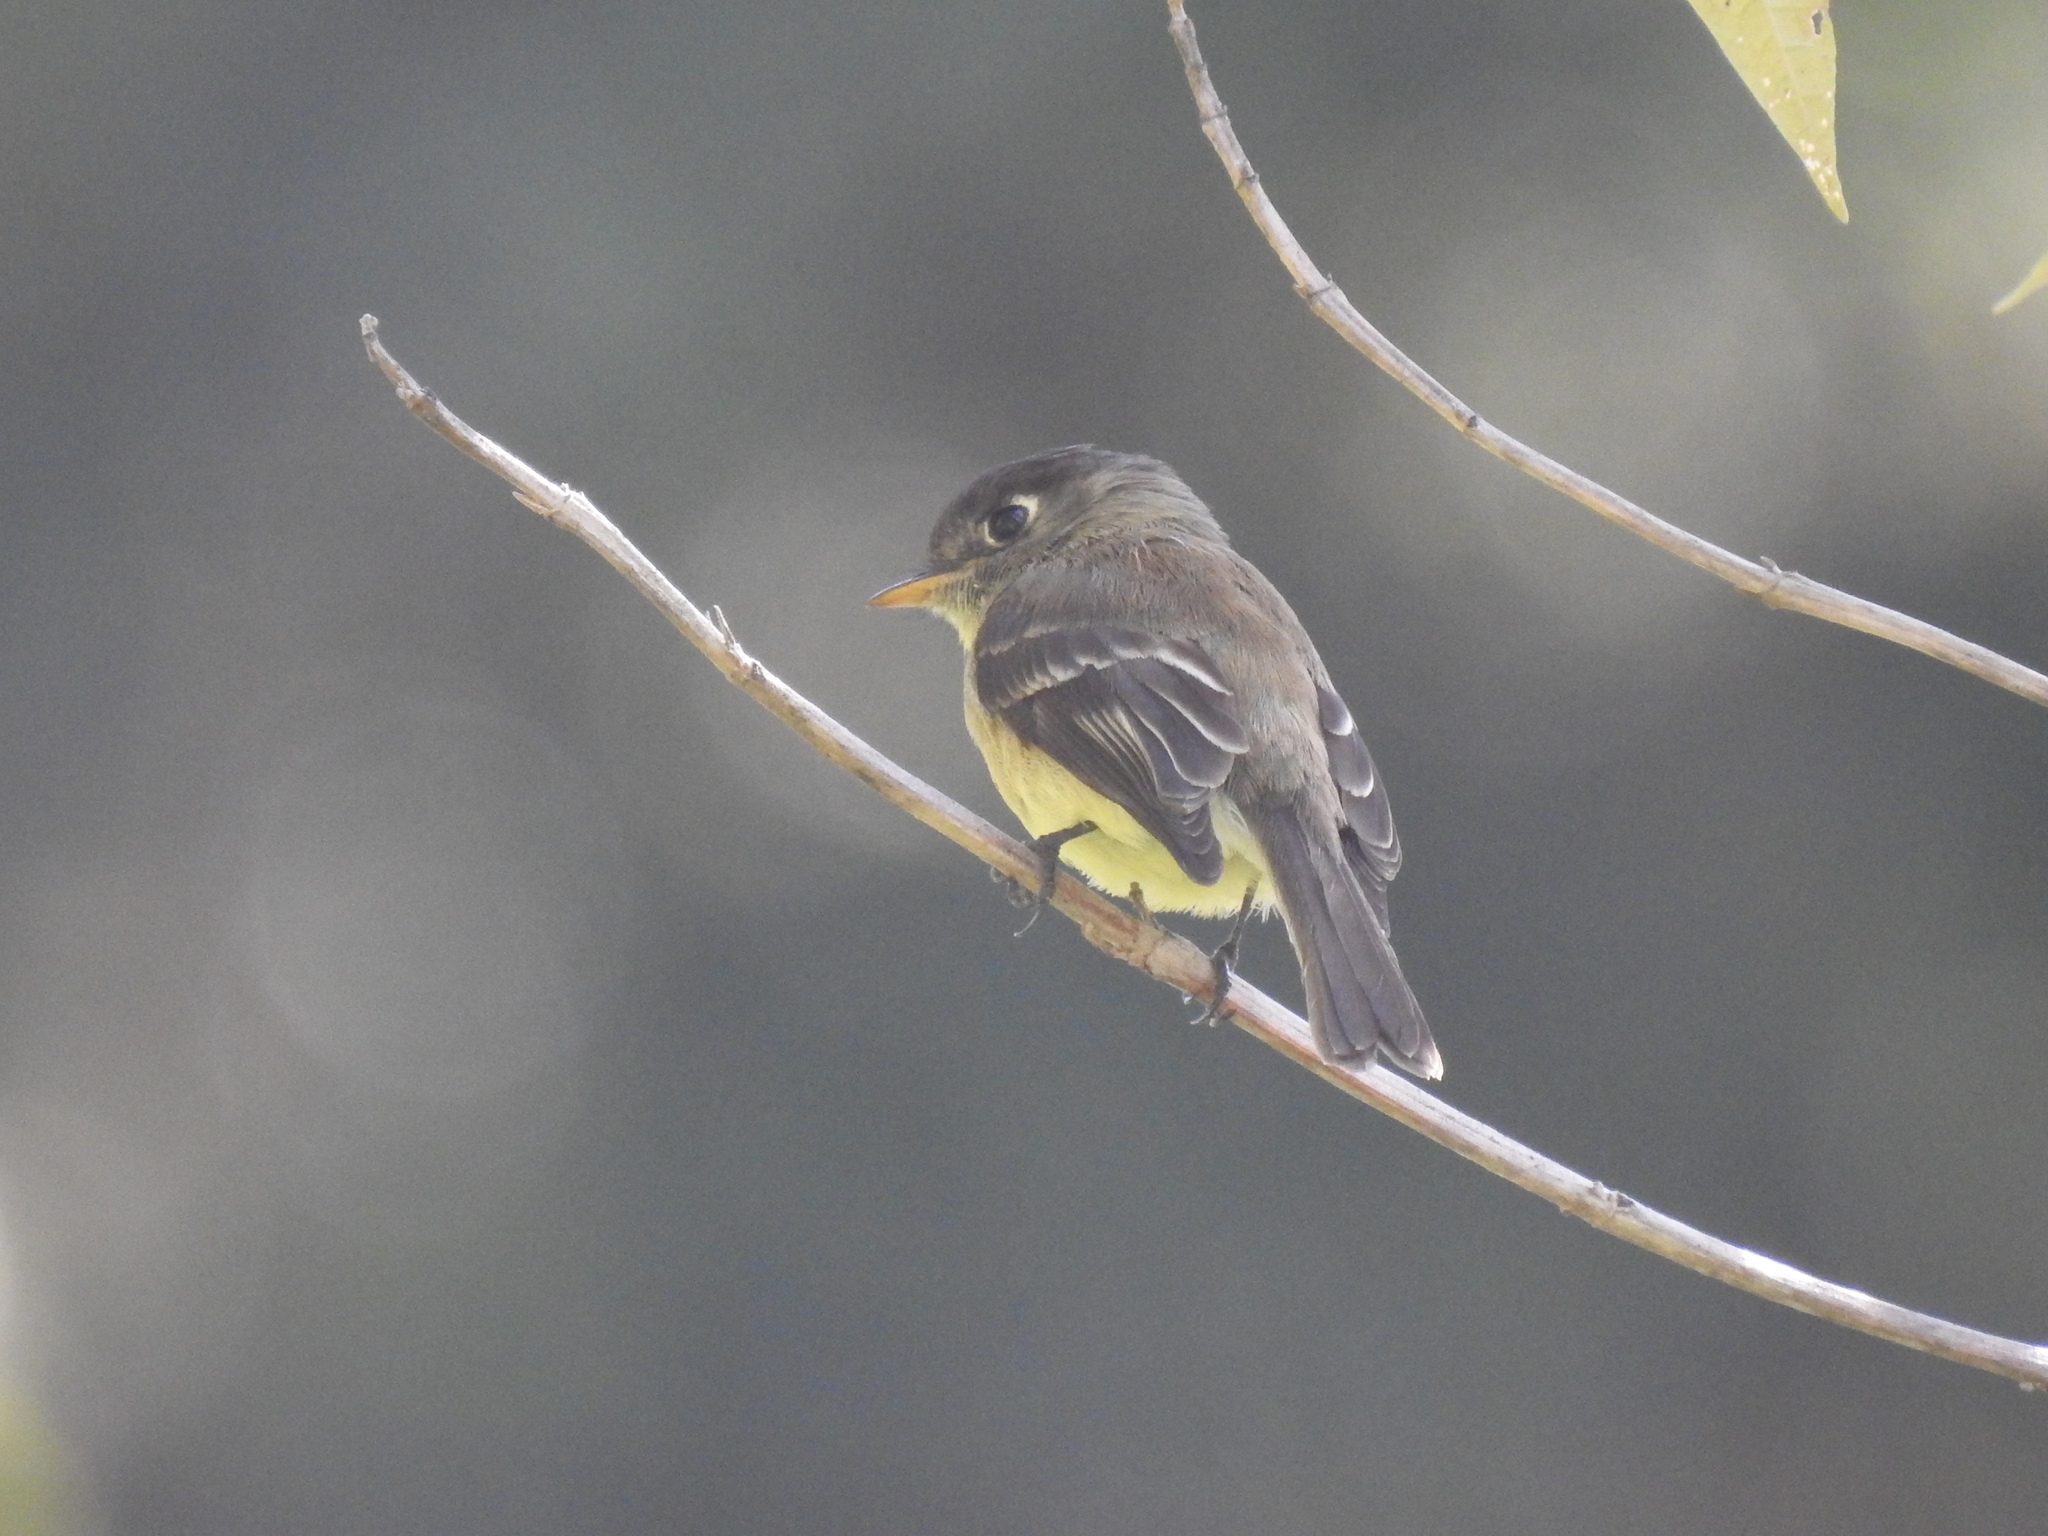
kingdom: Animalia
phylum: Chordata
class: Aves
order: Passeriformes
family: Tyrannidae
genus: Empidonax
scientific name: Empidonax atriceps
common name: Black-capped flycatcher
